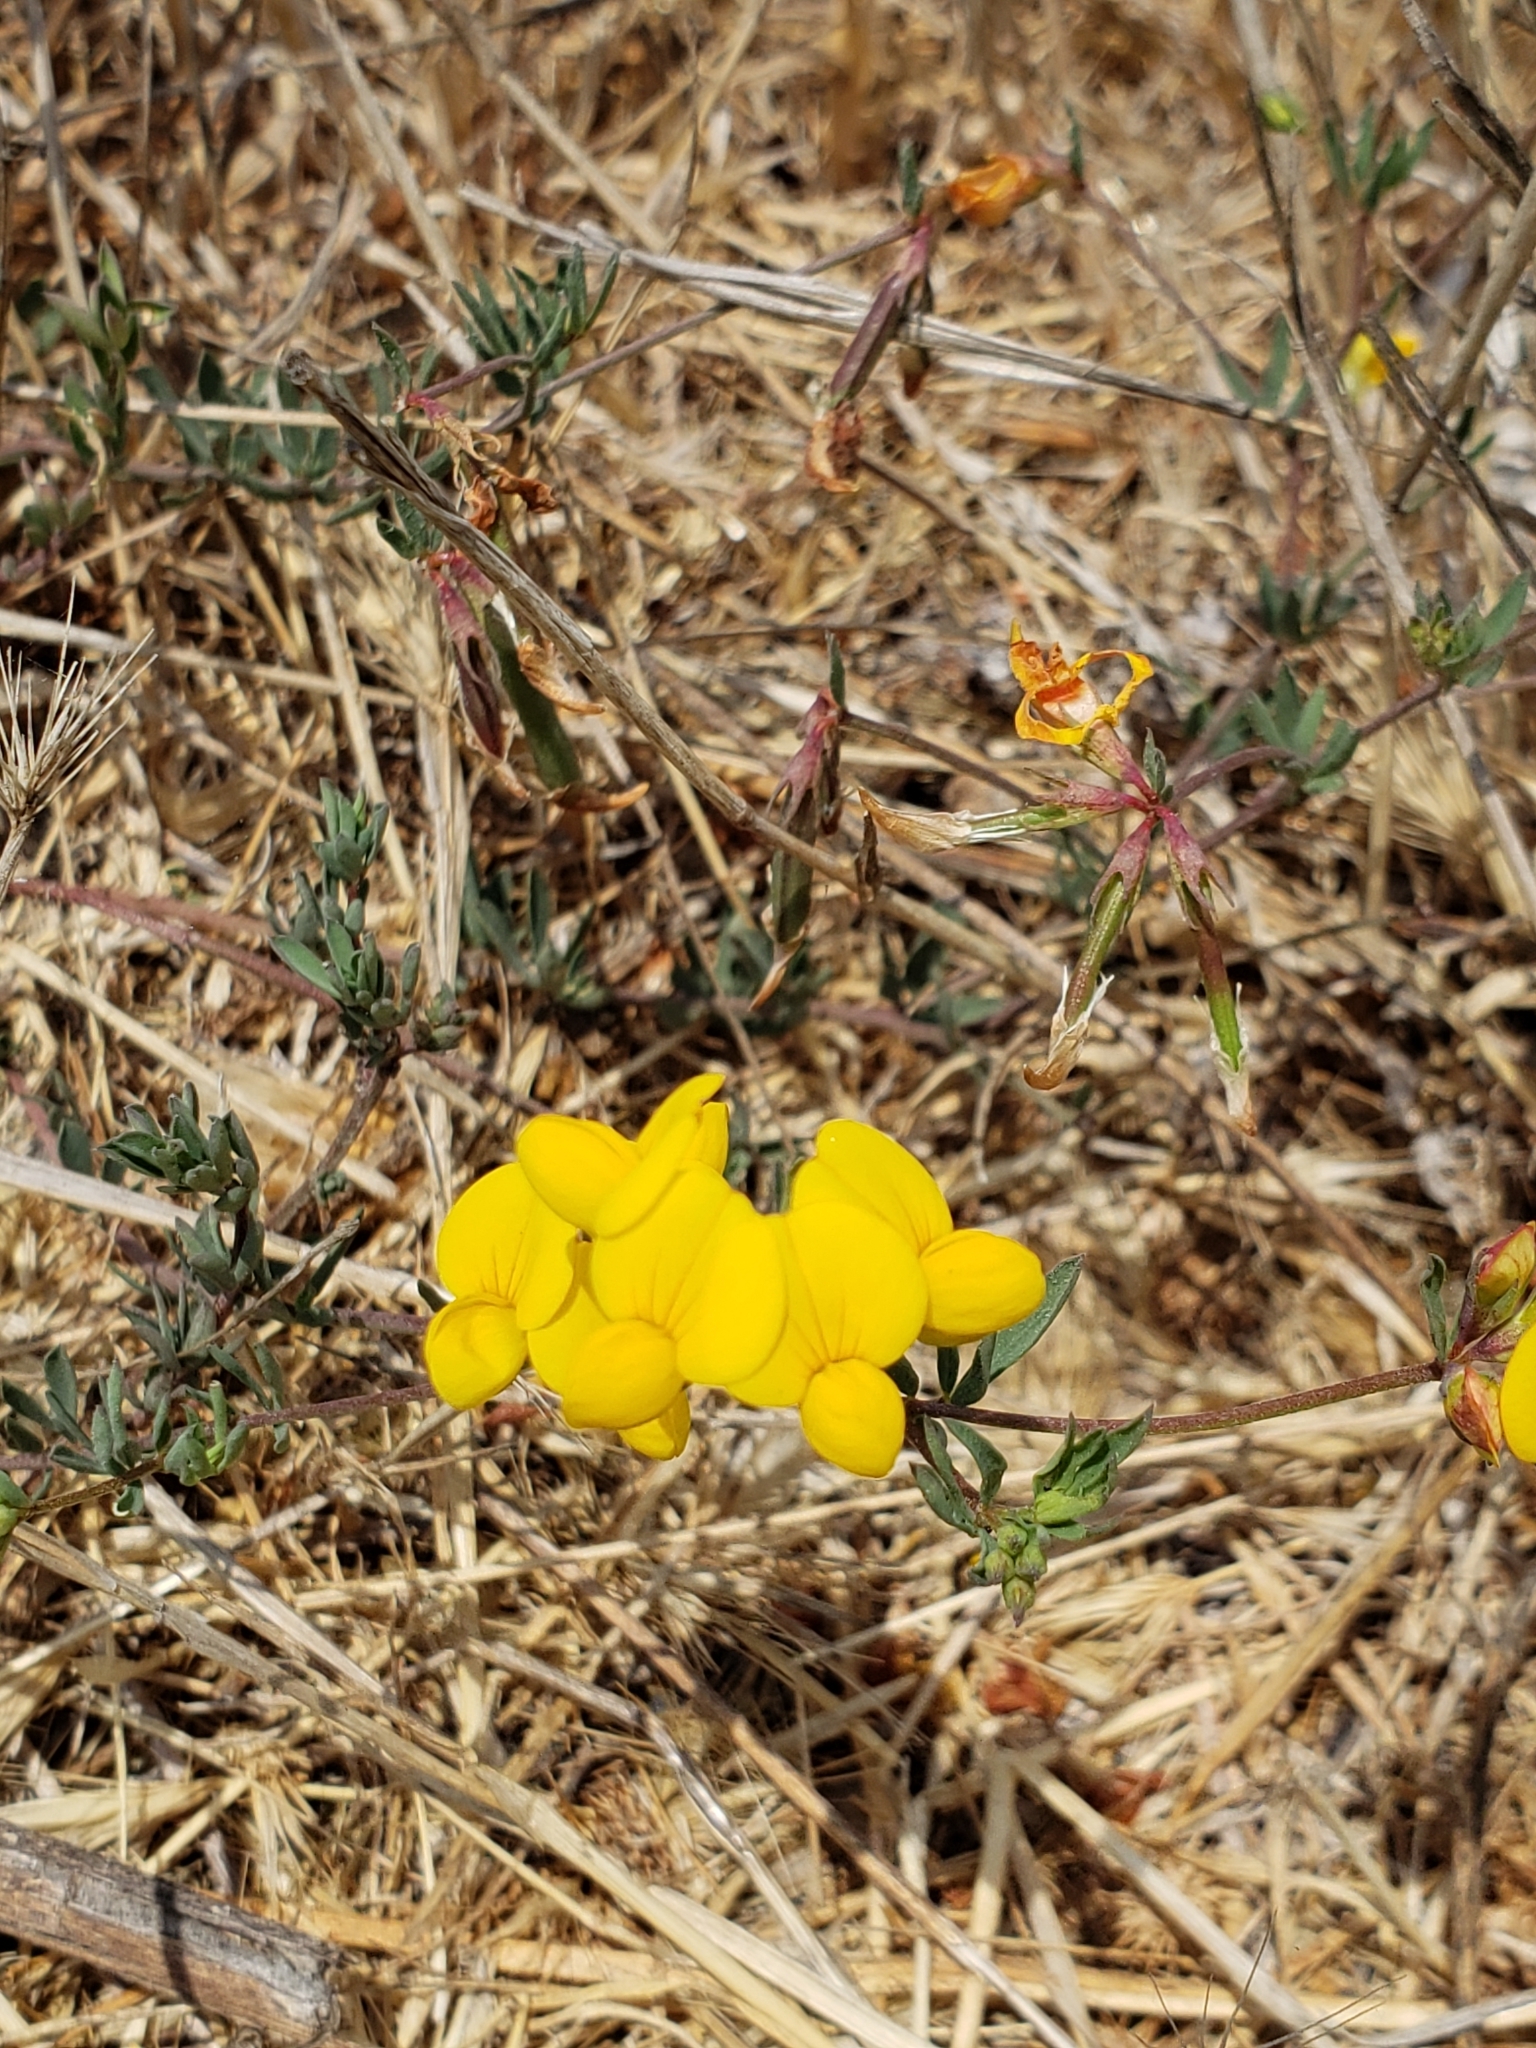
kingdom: Plantae
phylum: Tracheophyta
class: Magnoliopsida
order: Fabales
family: Fabaceae
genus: Lotus
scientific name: Lotus corniculatus
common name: Common bird's-foot-trefoil
